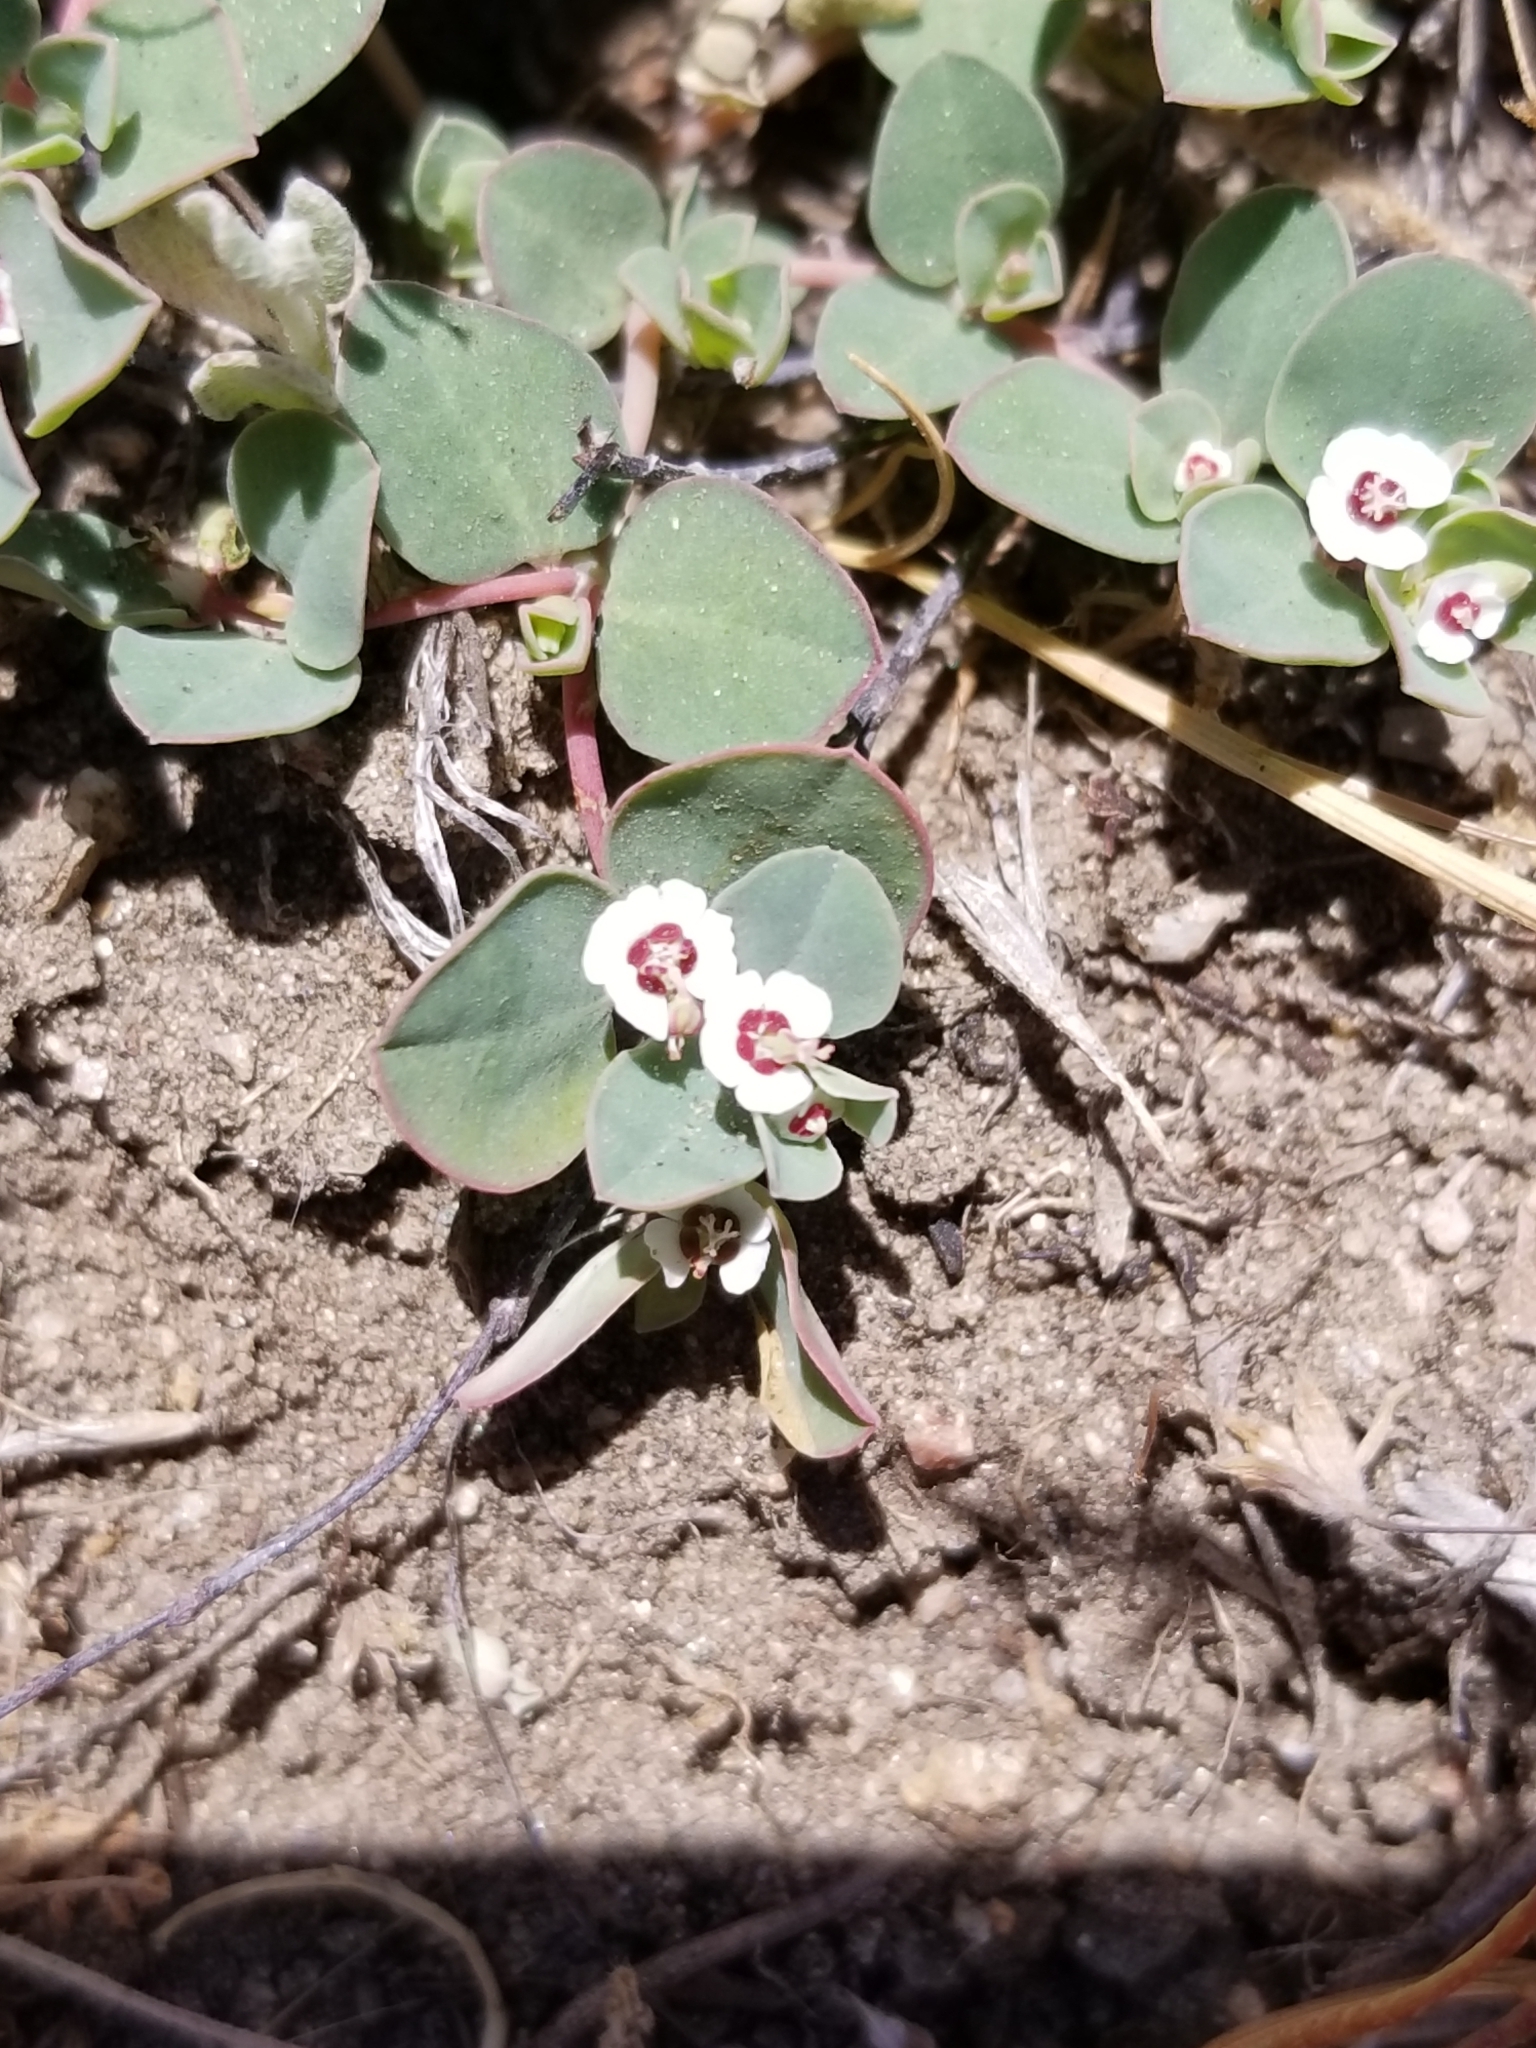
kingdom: Plantae
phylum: Tracheophyta
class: Magnoliopsida
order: Malpighiales
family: Euphorbiaceae
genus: Euphorbia
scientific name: Euphorbia albomarginata
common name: Whitemargin sandmat
